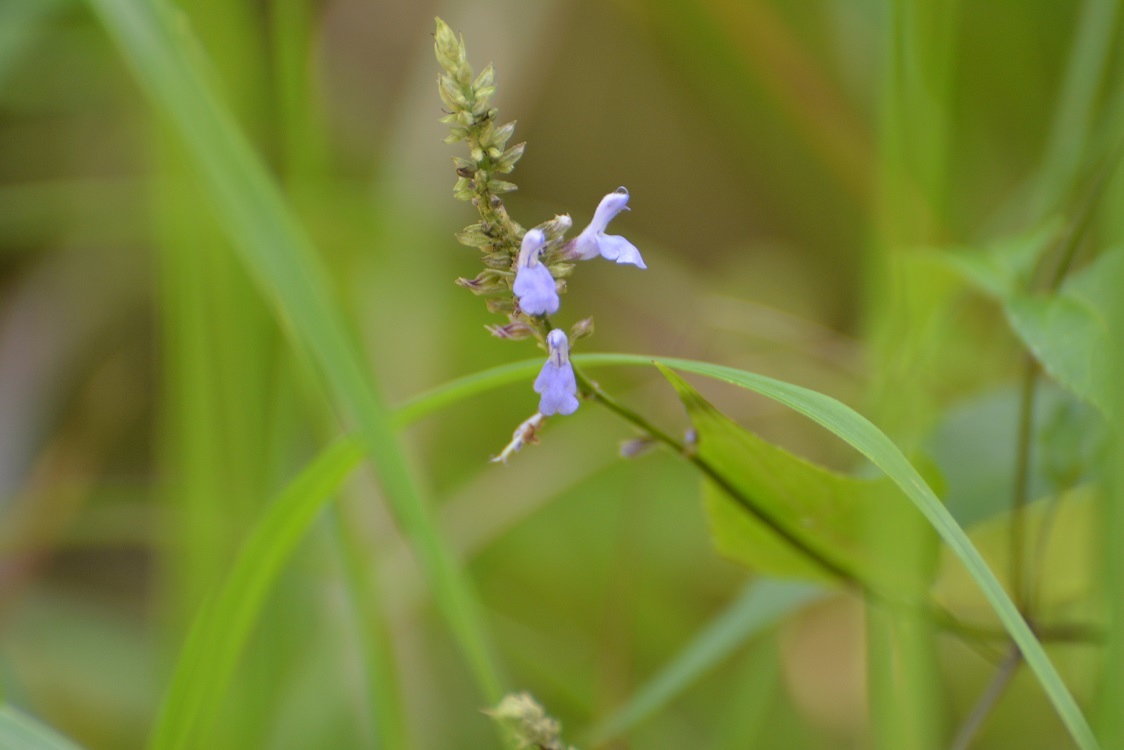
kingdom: Plantae
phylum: Tracheophyta
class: Magnoliopsida
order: Lamiales
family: Lamiaceae
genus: Salvia
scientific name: Salvia connivens
